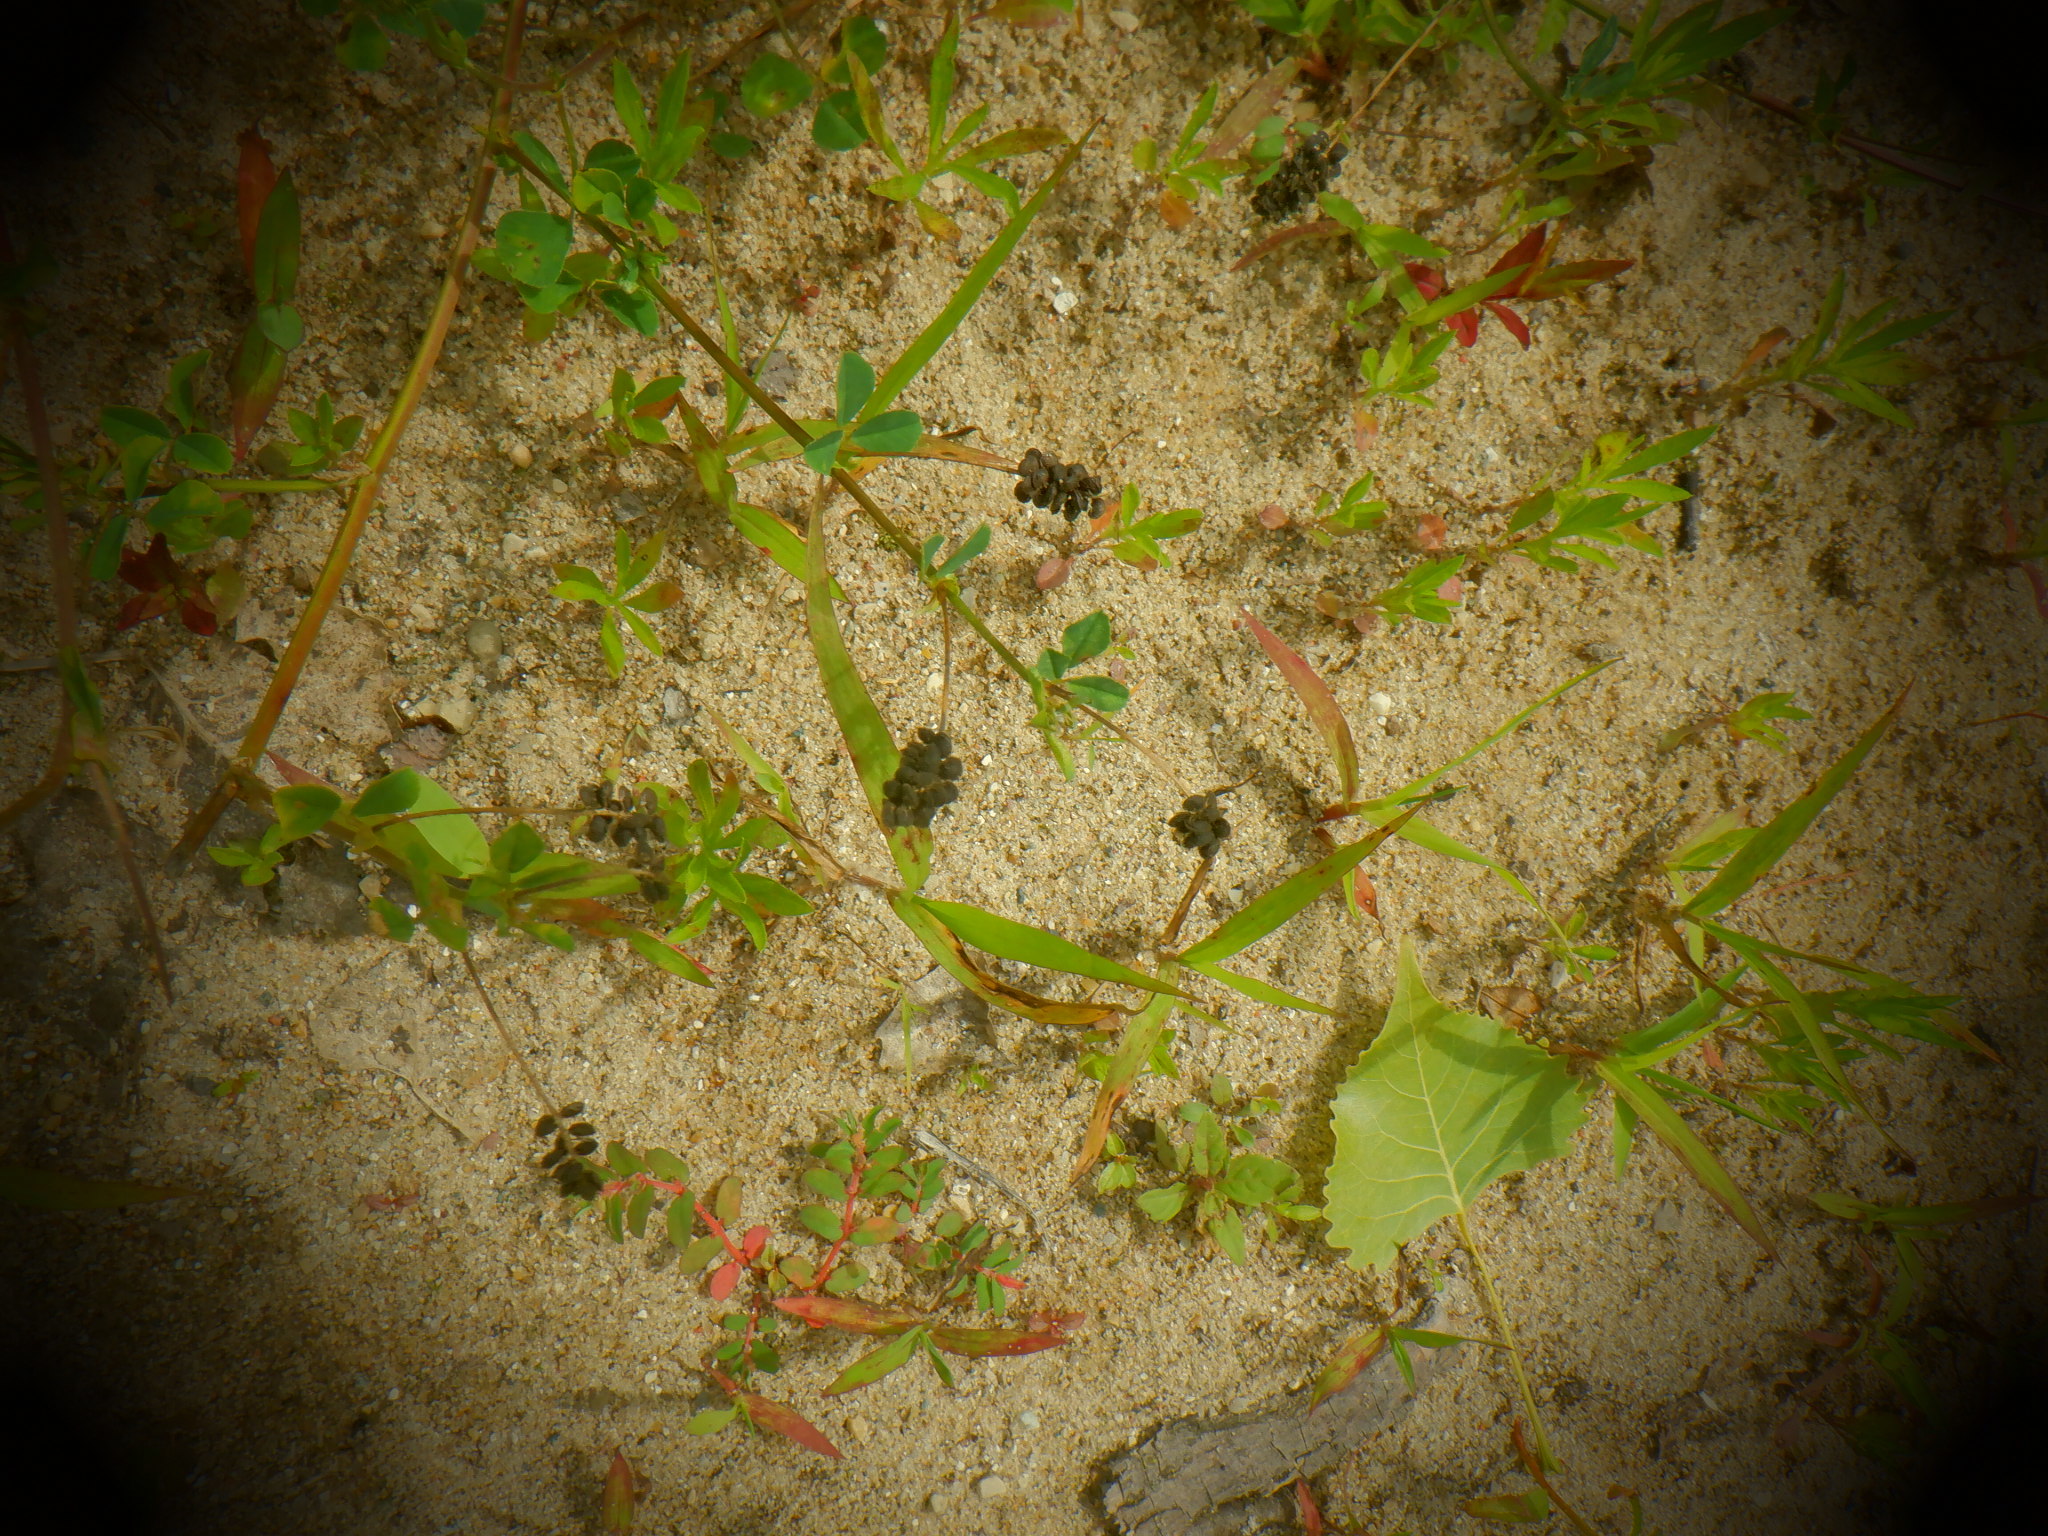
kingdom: Plantae
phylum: Tracheophyta
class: Magnoliopsida
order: Fabales
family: Fabaceae
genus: Medicago
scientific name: Medicago lupulina
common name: Black medick
